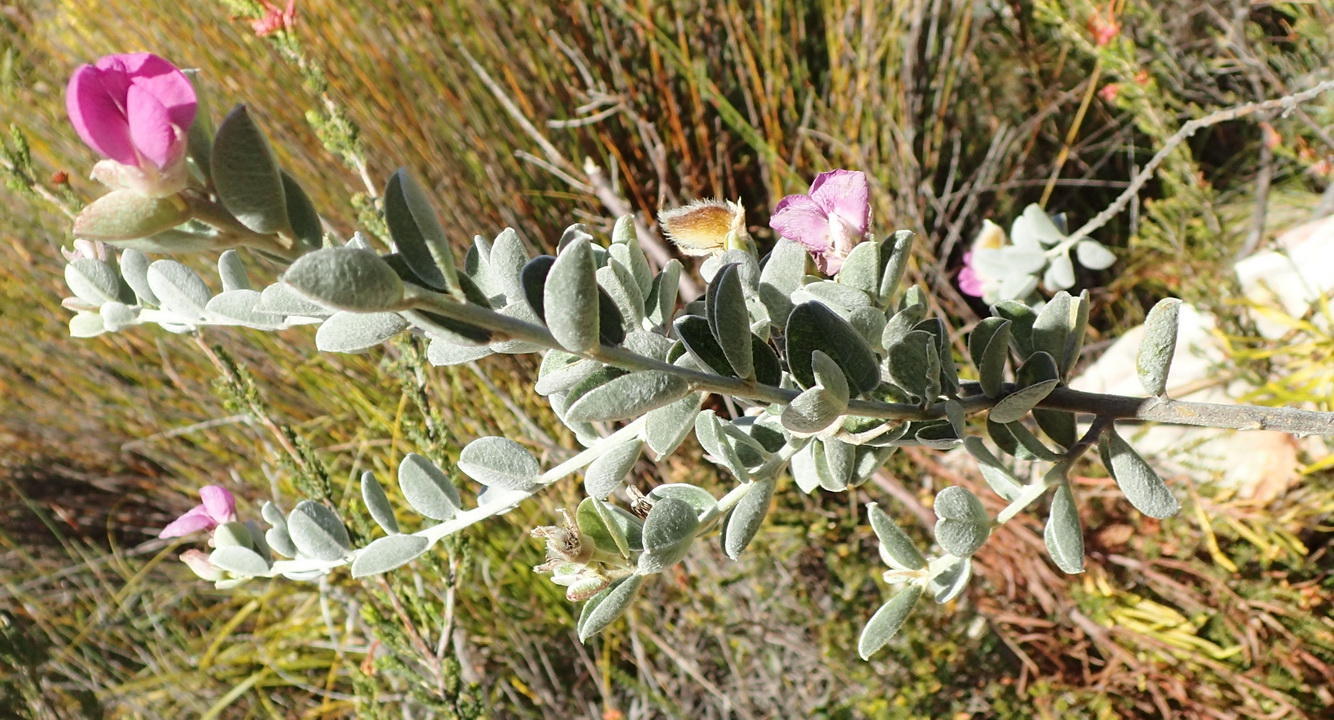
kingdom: Plantae
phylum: Tracheophyta
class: Magnoliopsida
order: Fabales
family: Fabaceae
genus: Podalyria
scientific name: Podalyria hirsuta
